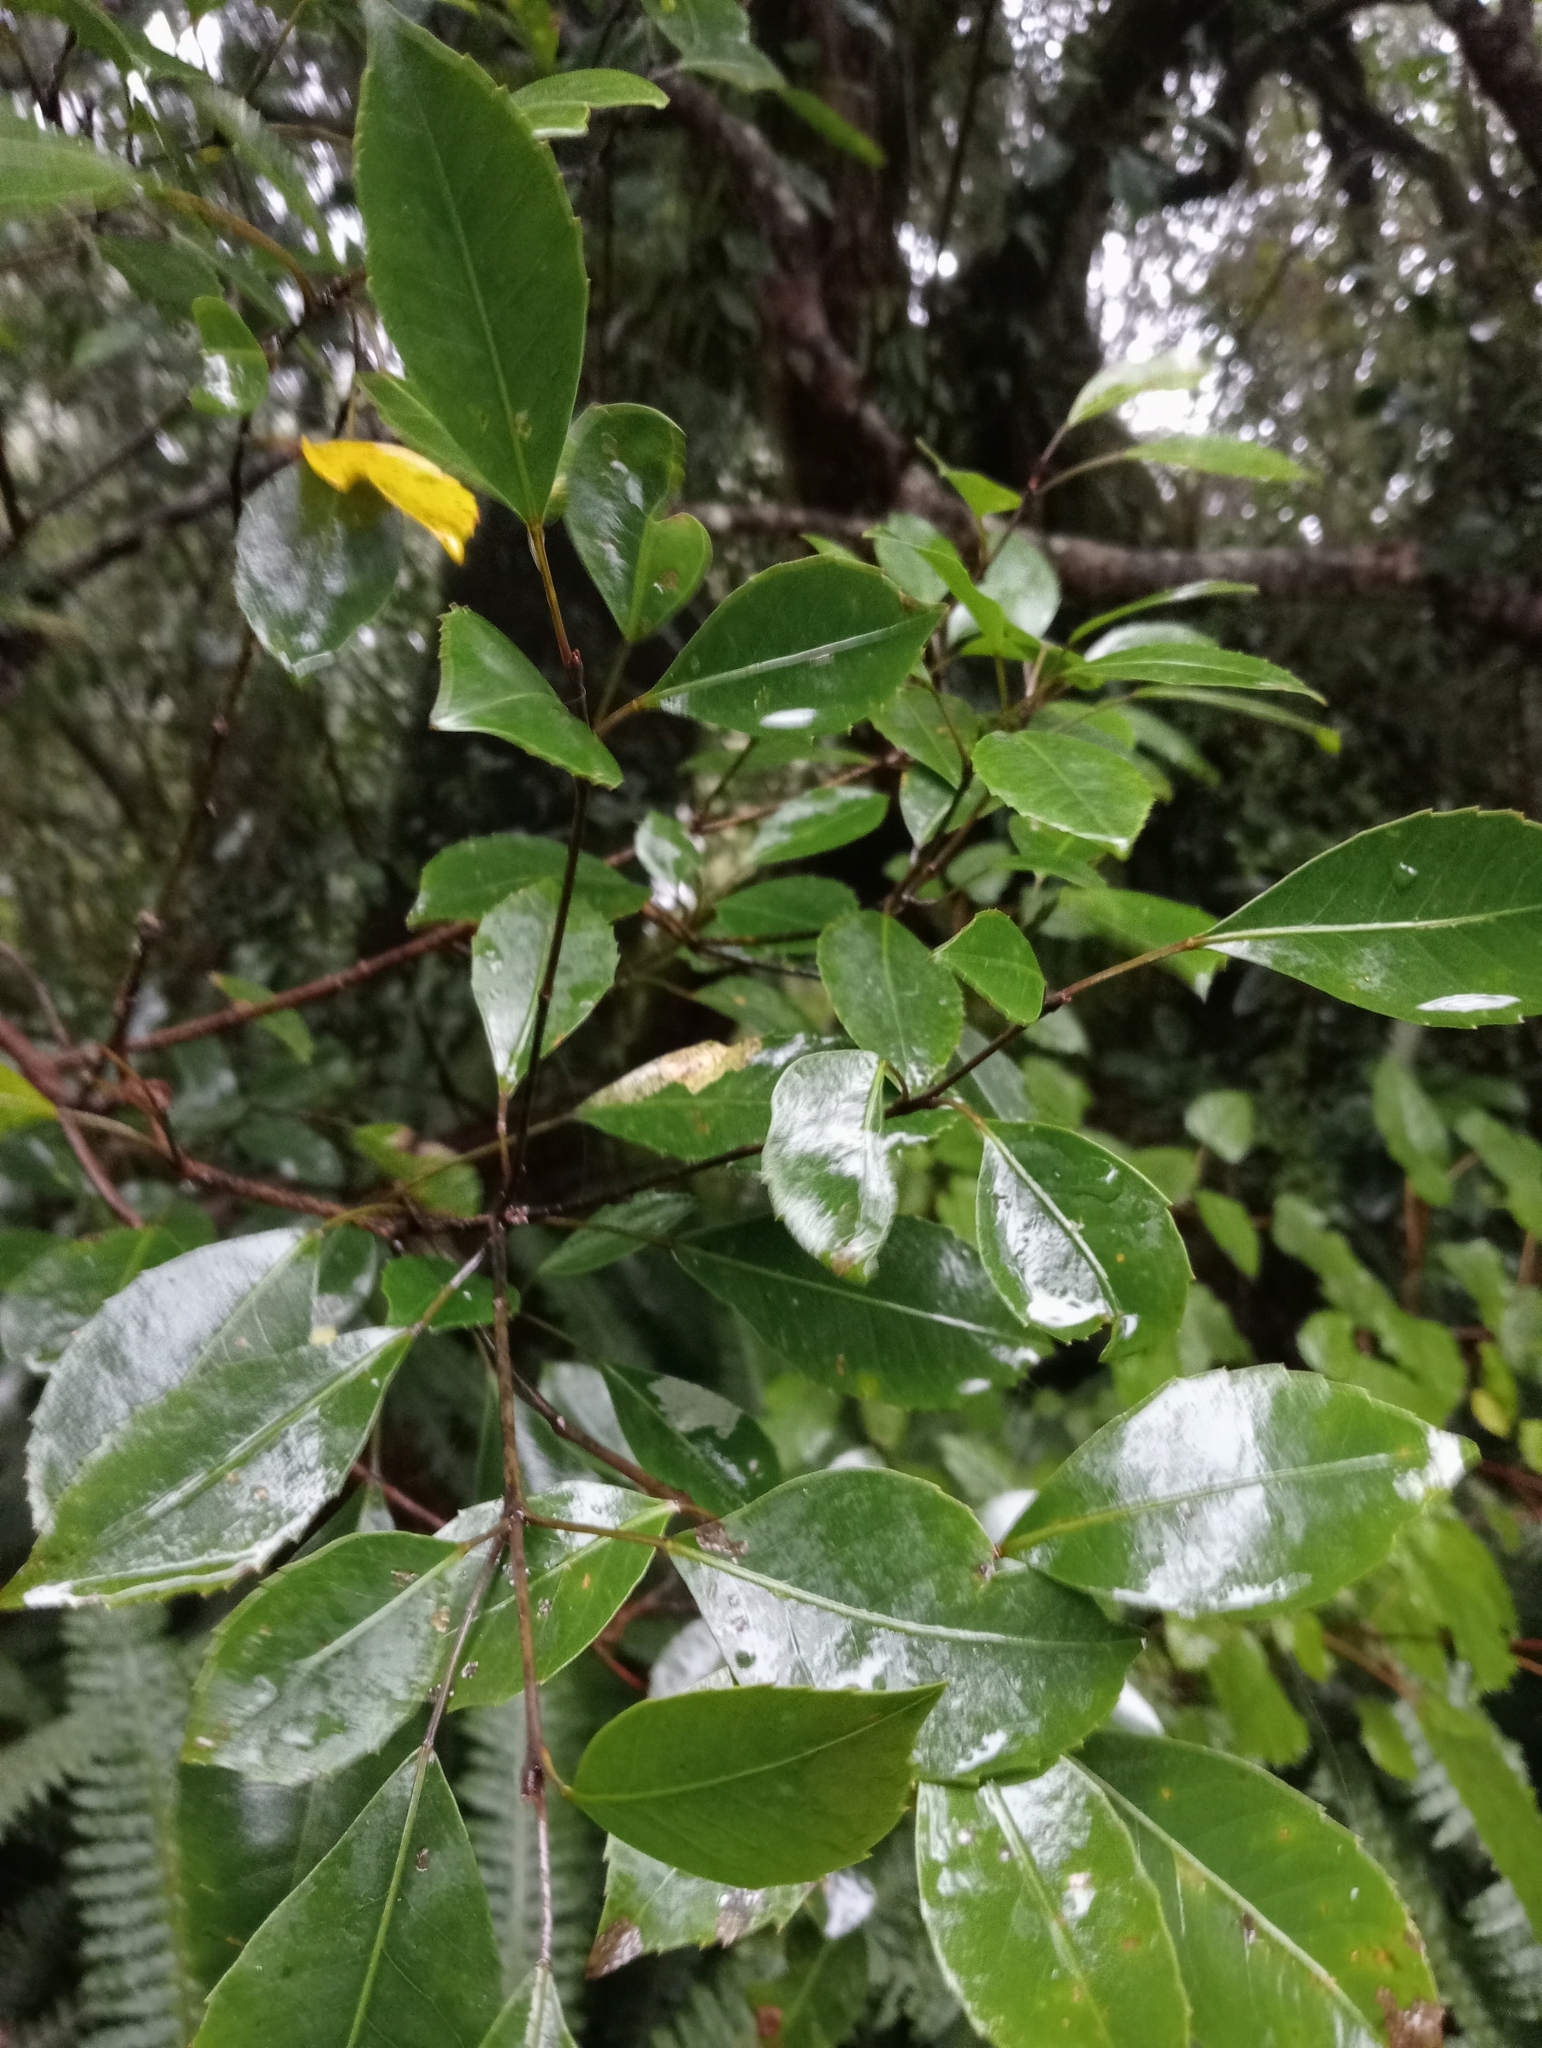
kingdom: Plantae
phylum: Tracheophyta
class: Magnoliopsida
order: Apiales
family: Araliaceae
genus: Raukaua
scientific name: Raukaua simplex
